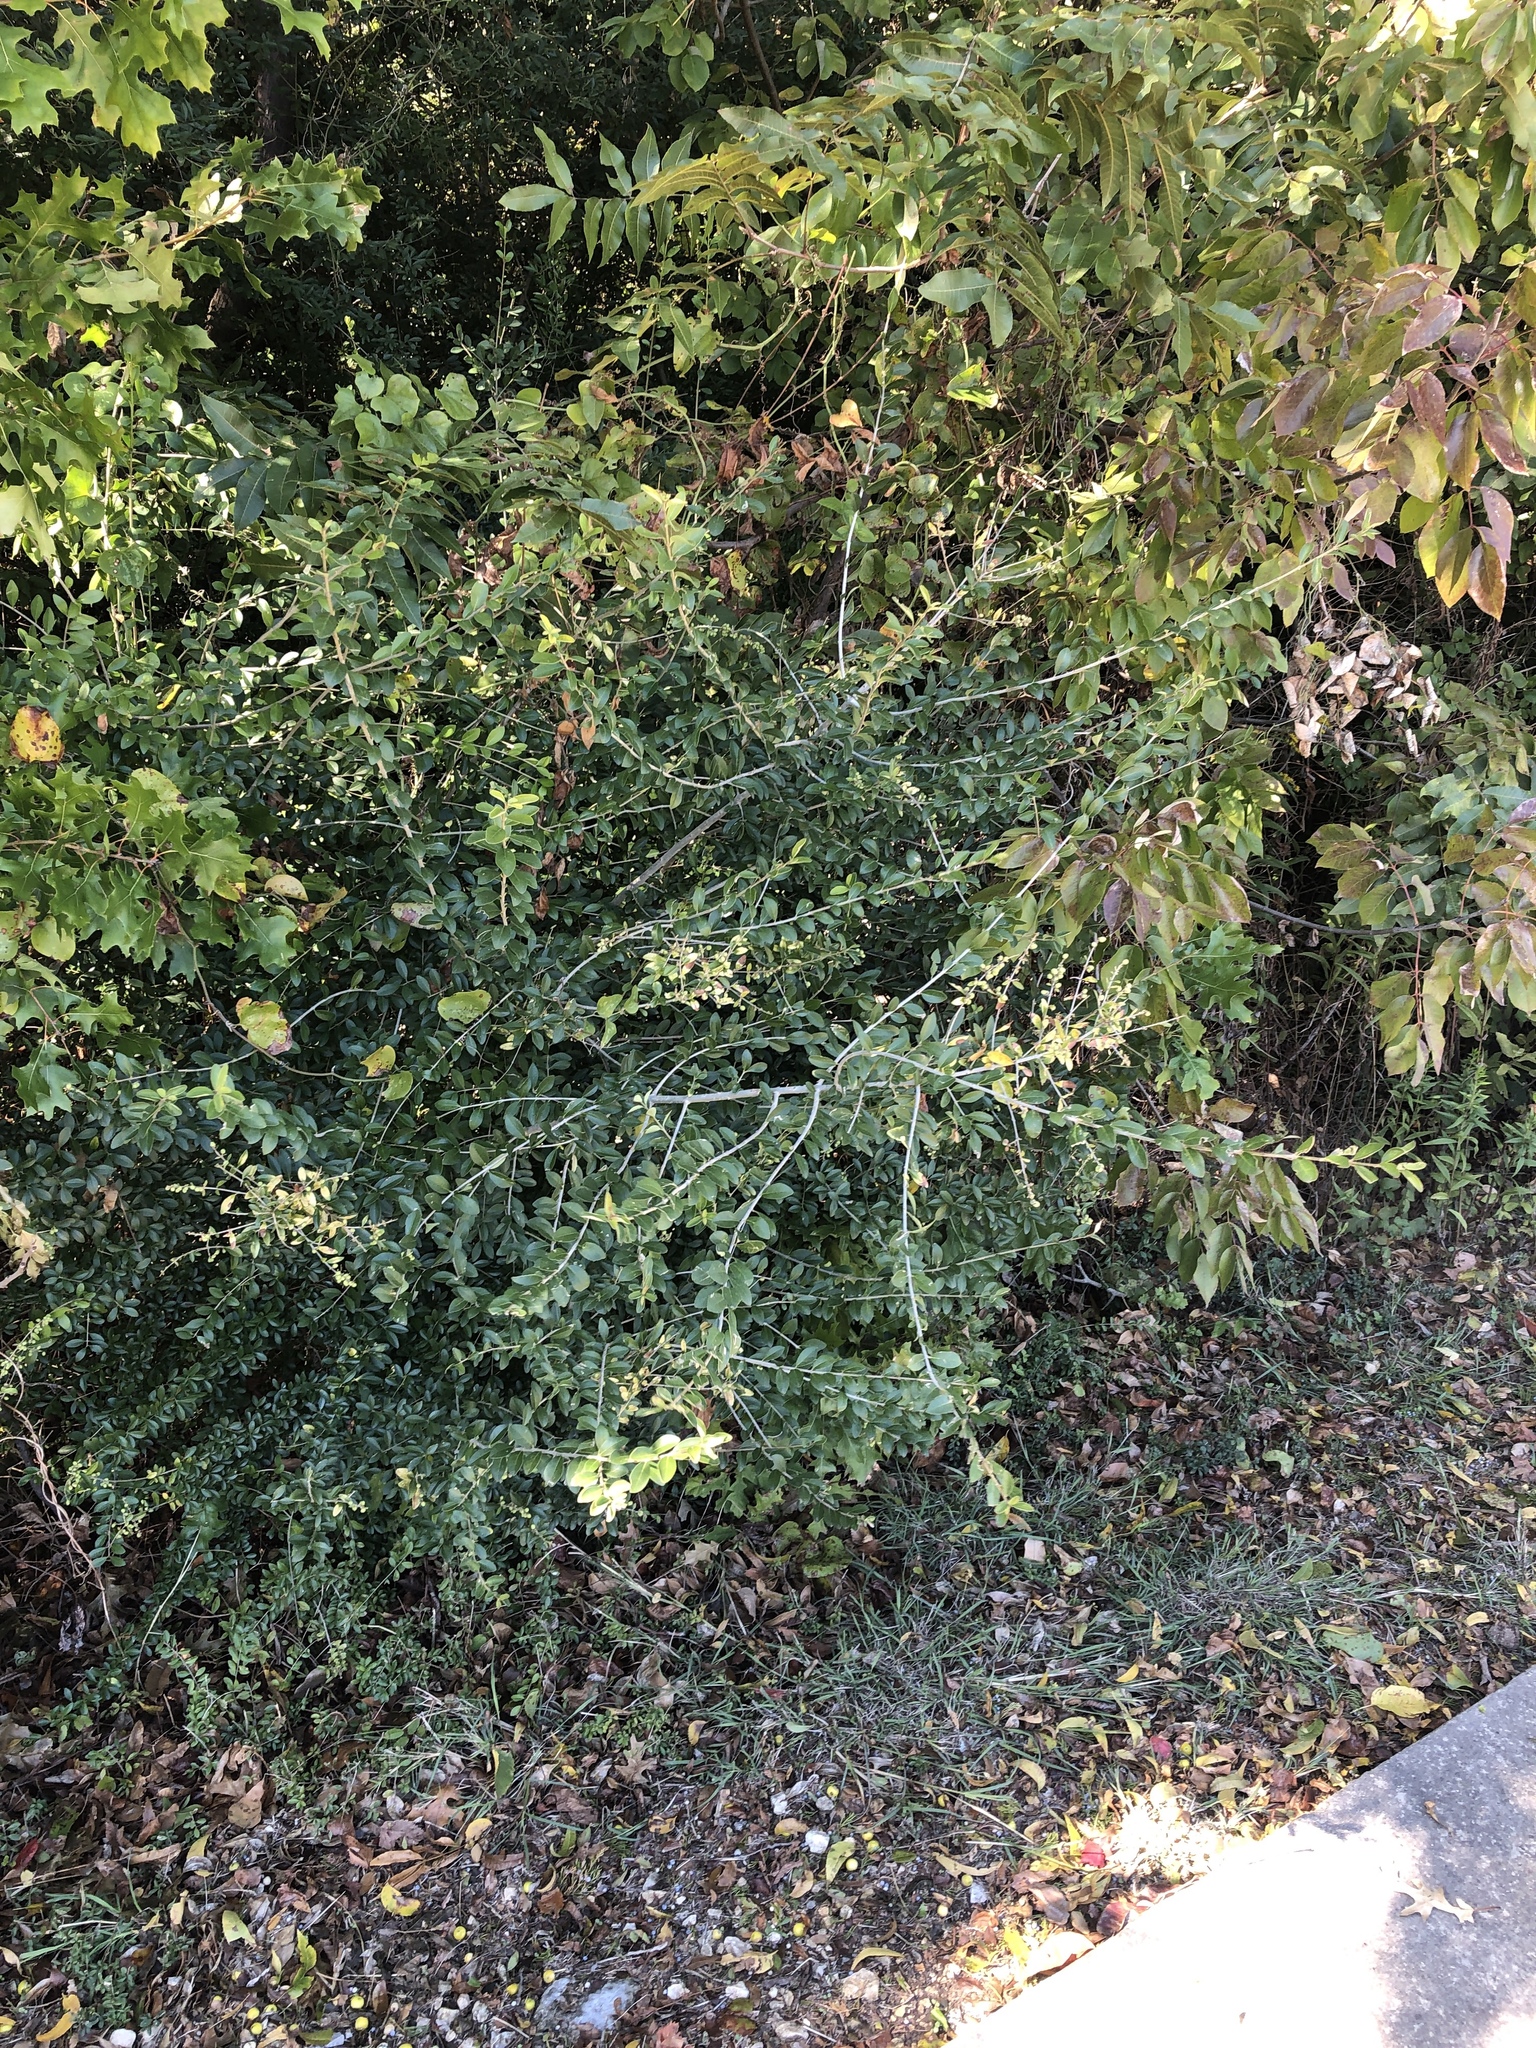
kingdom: Plantae
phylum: Tracheophyta
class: Magnoliopsida
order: Lamiales
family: Oleaceae
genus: Ligustrum
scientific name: Ligustrum quihoui
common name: Waxyleaf privet
